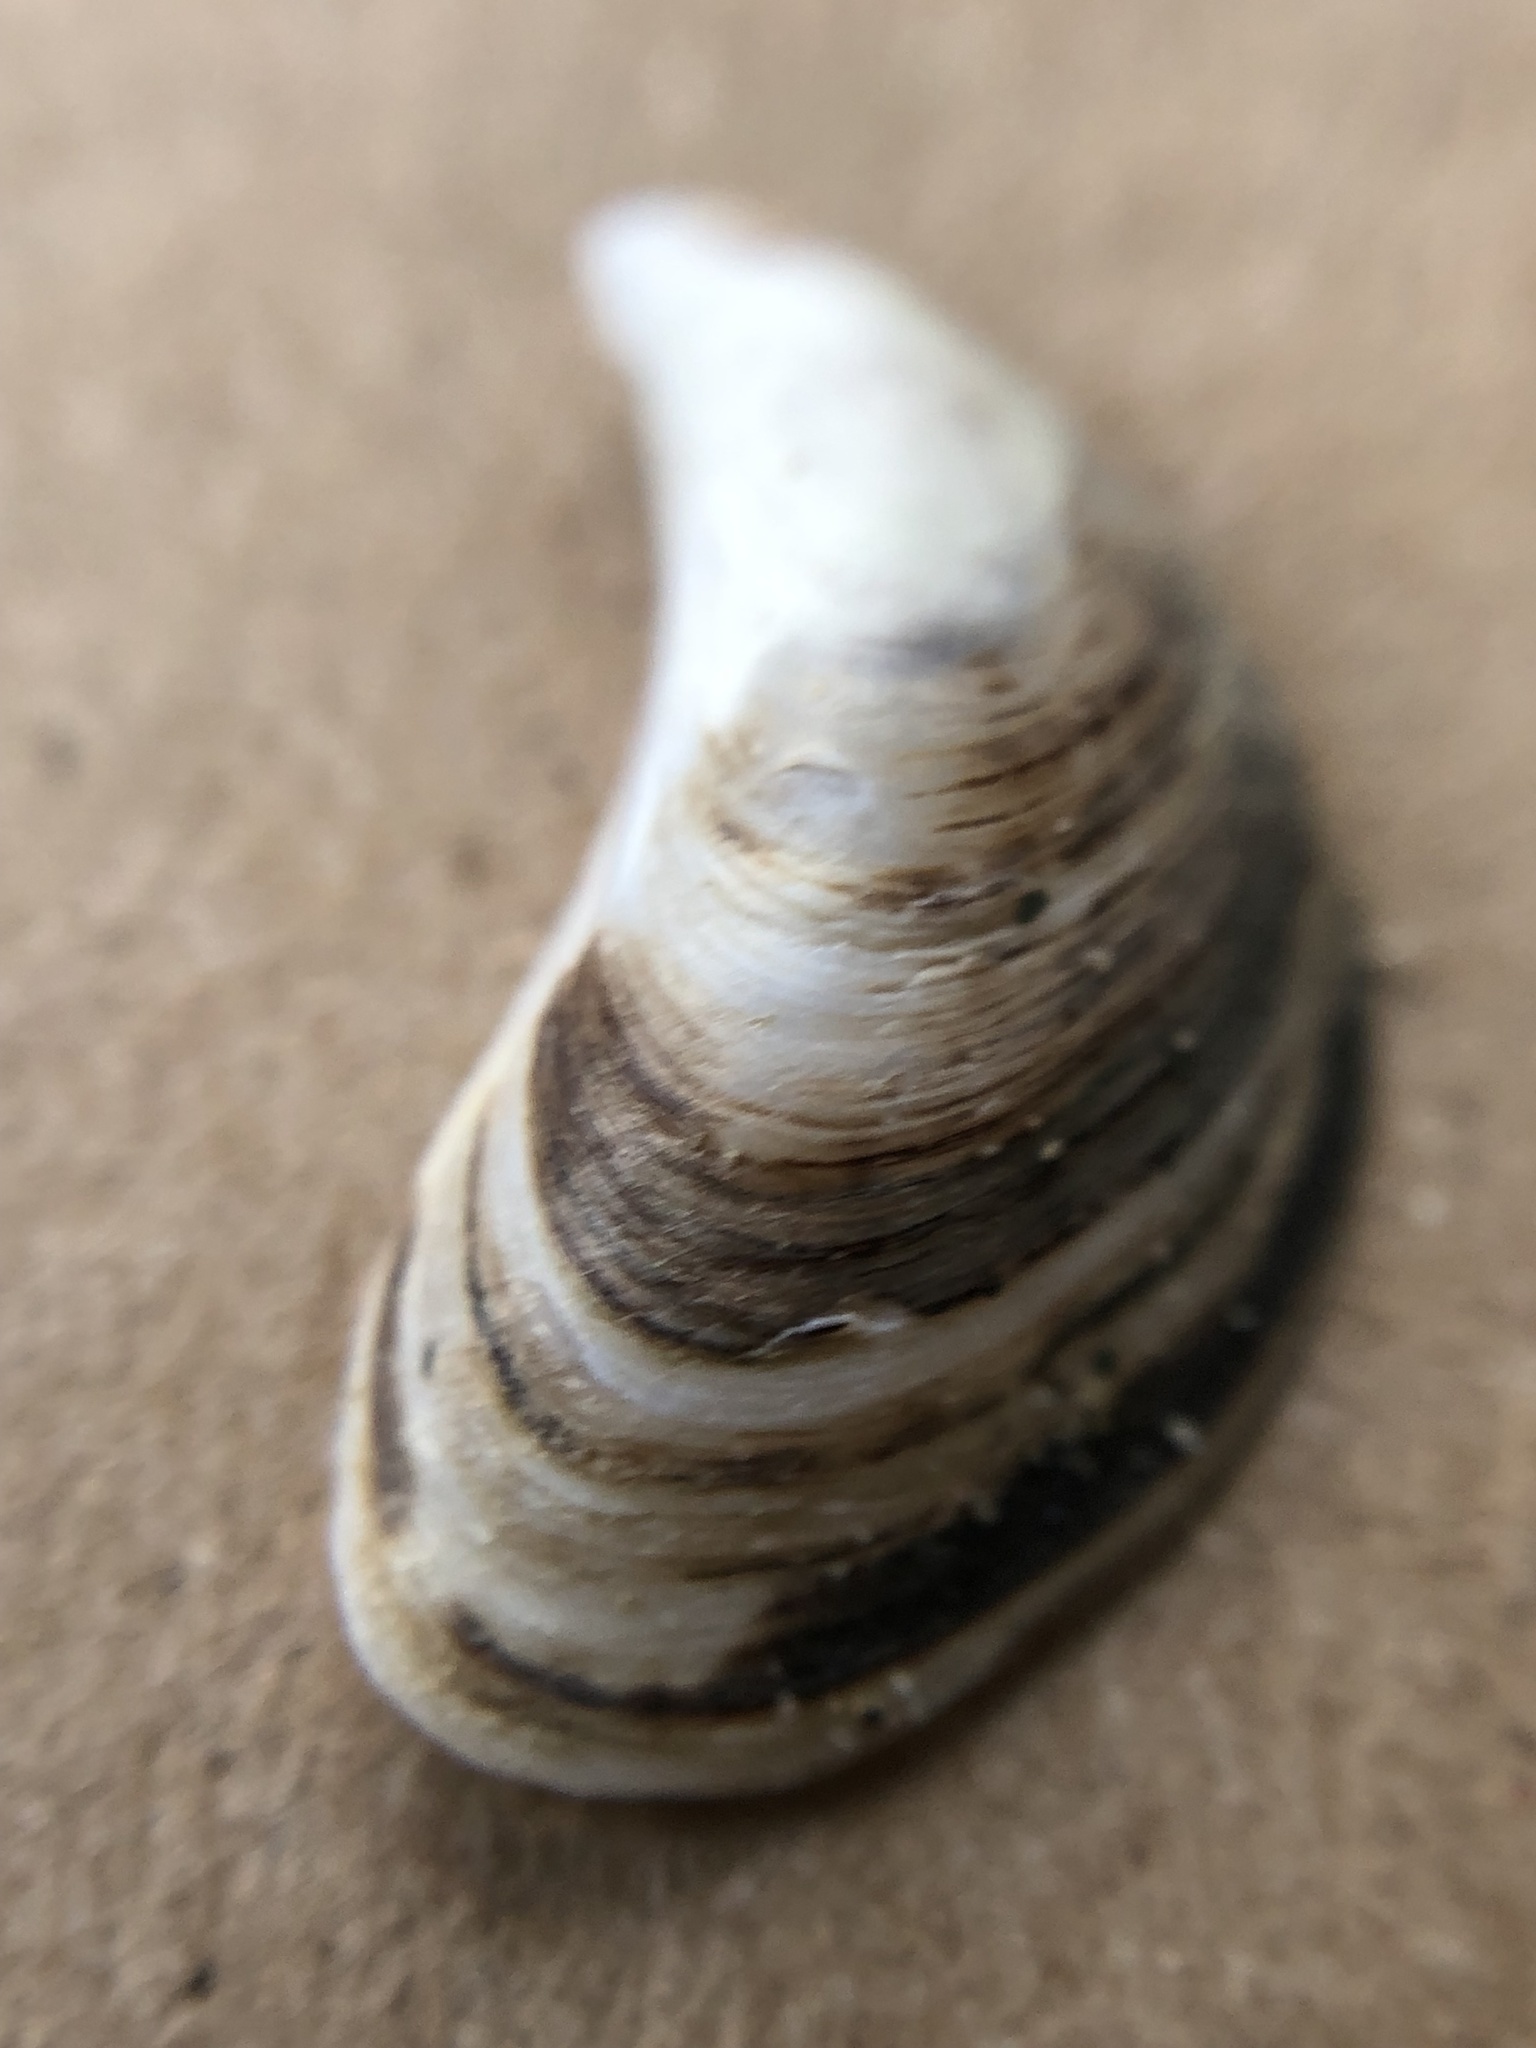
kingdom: Animalia
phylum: Mollusca
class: Bivalvia
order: Myida
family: Dreissenidae
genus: Dreissena
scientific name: Dreissena bugensis
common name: Quagga mussel
